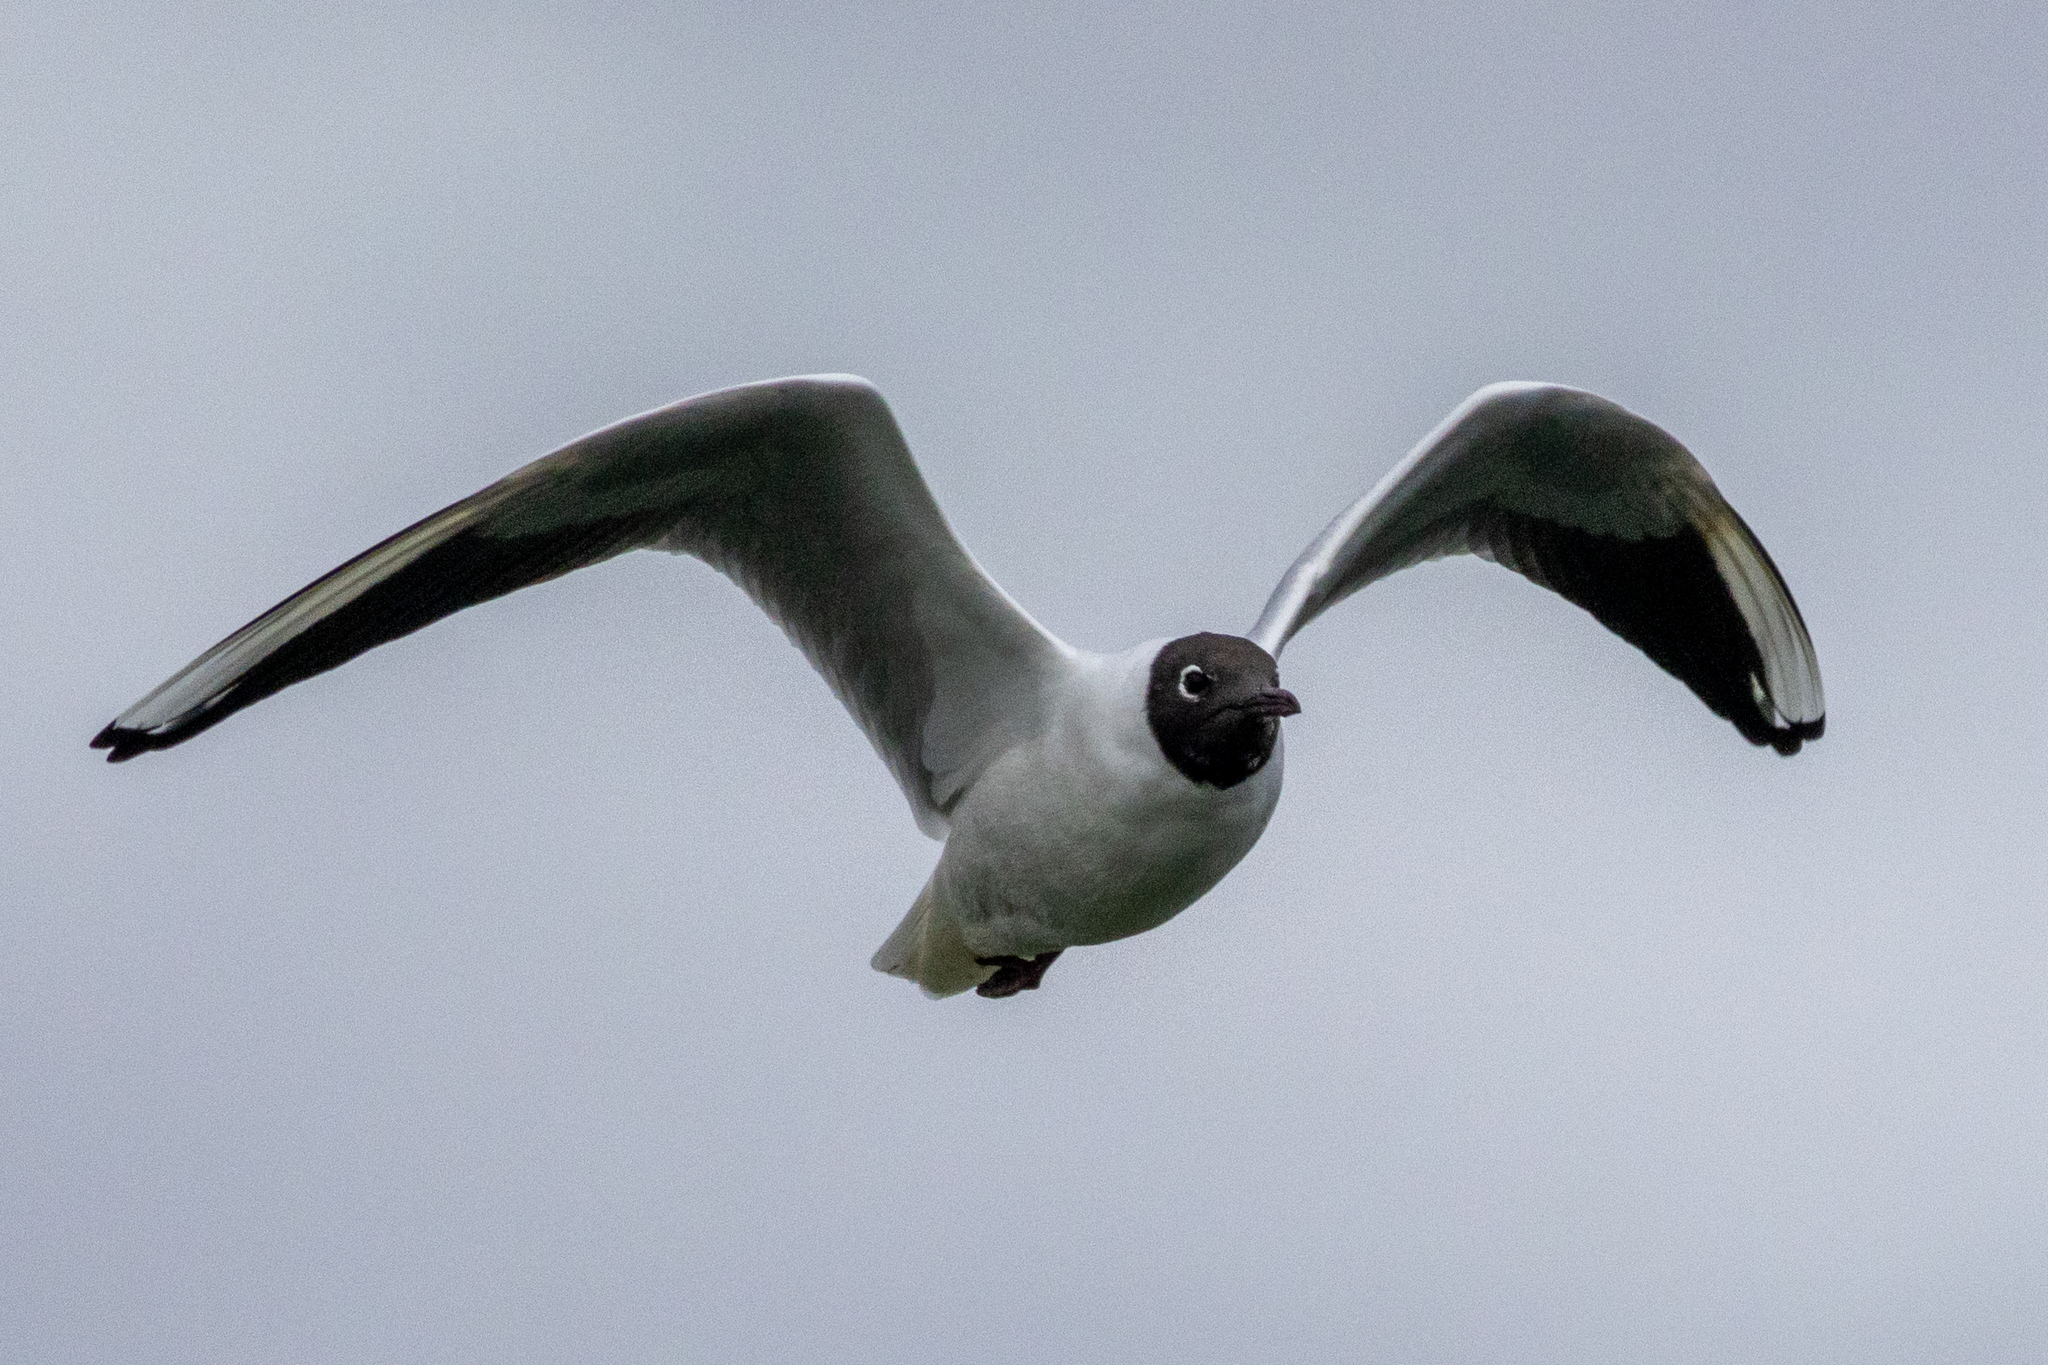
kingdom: Animalia
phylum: Chordata
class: Aves
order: Charadriiformes
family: Laridae
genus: Chroicocephalus
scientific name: Chroicocephalus ridibundus
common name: Black-headed gull
